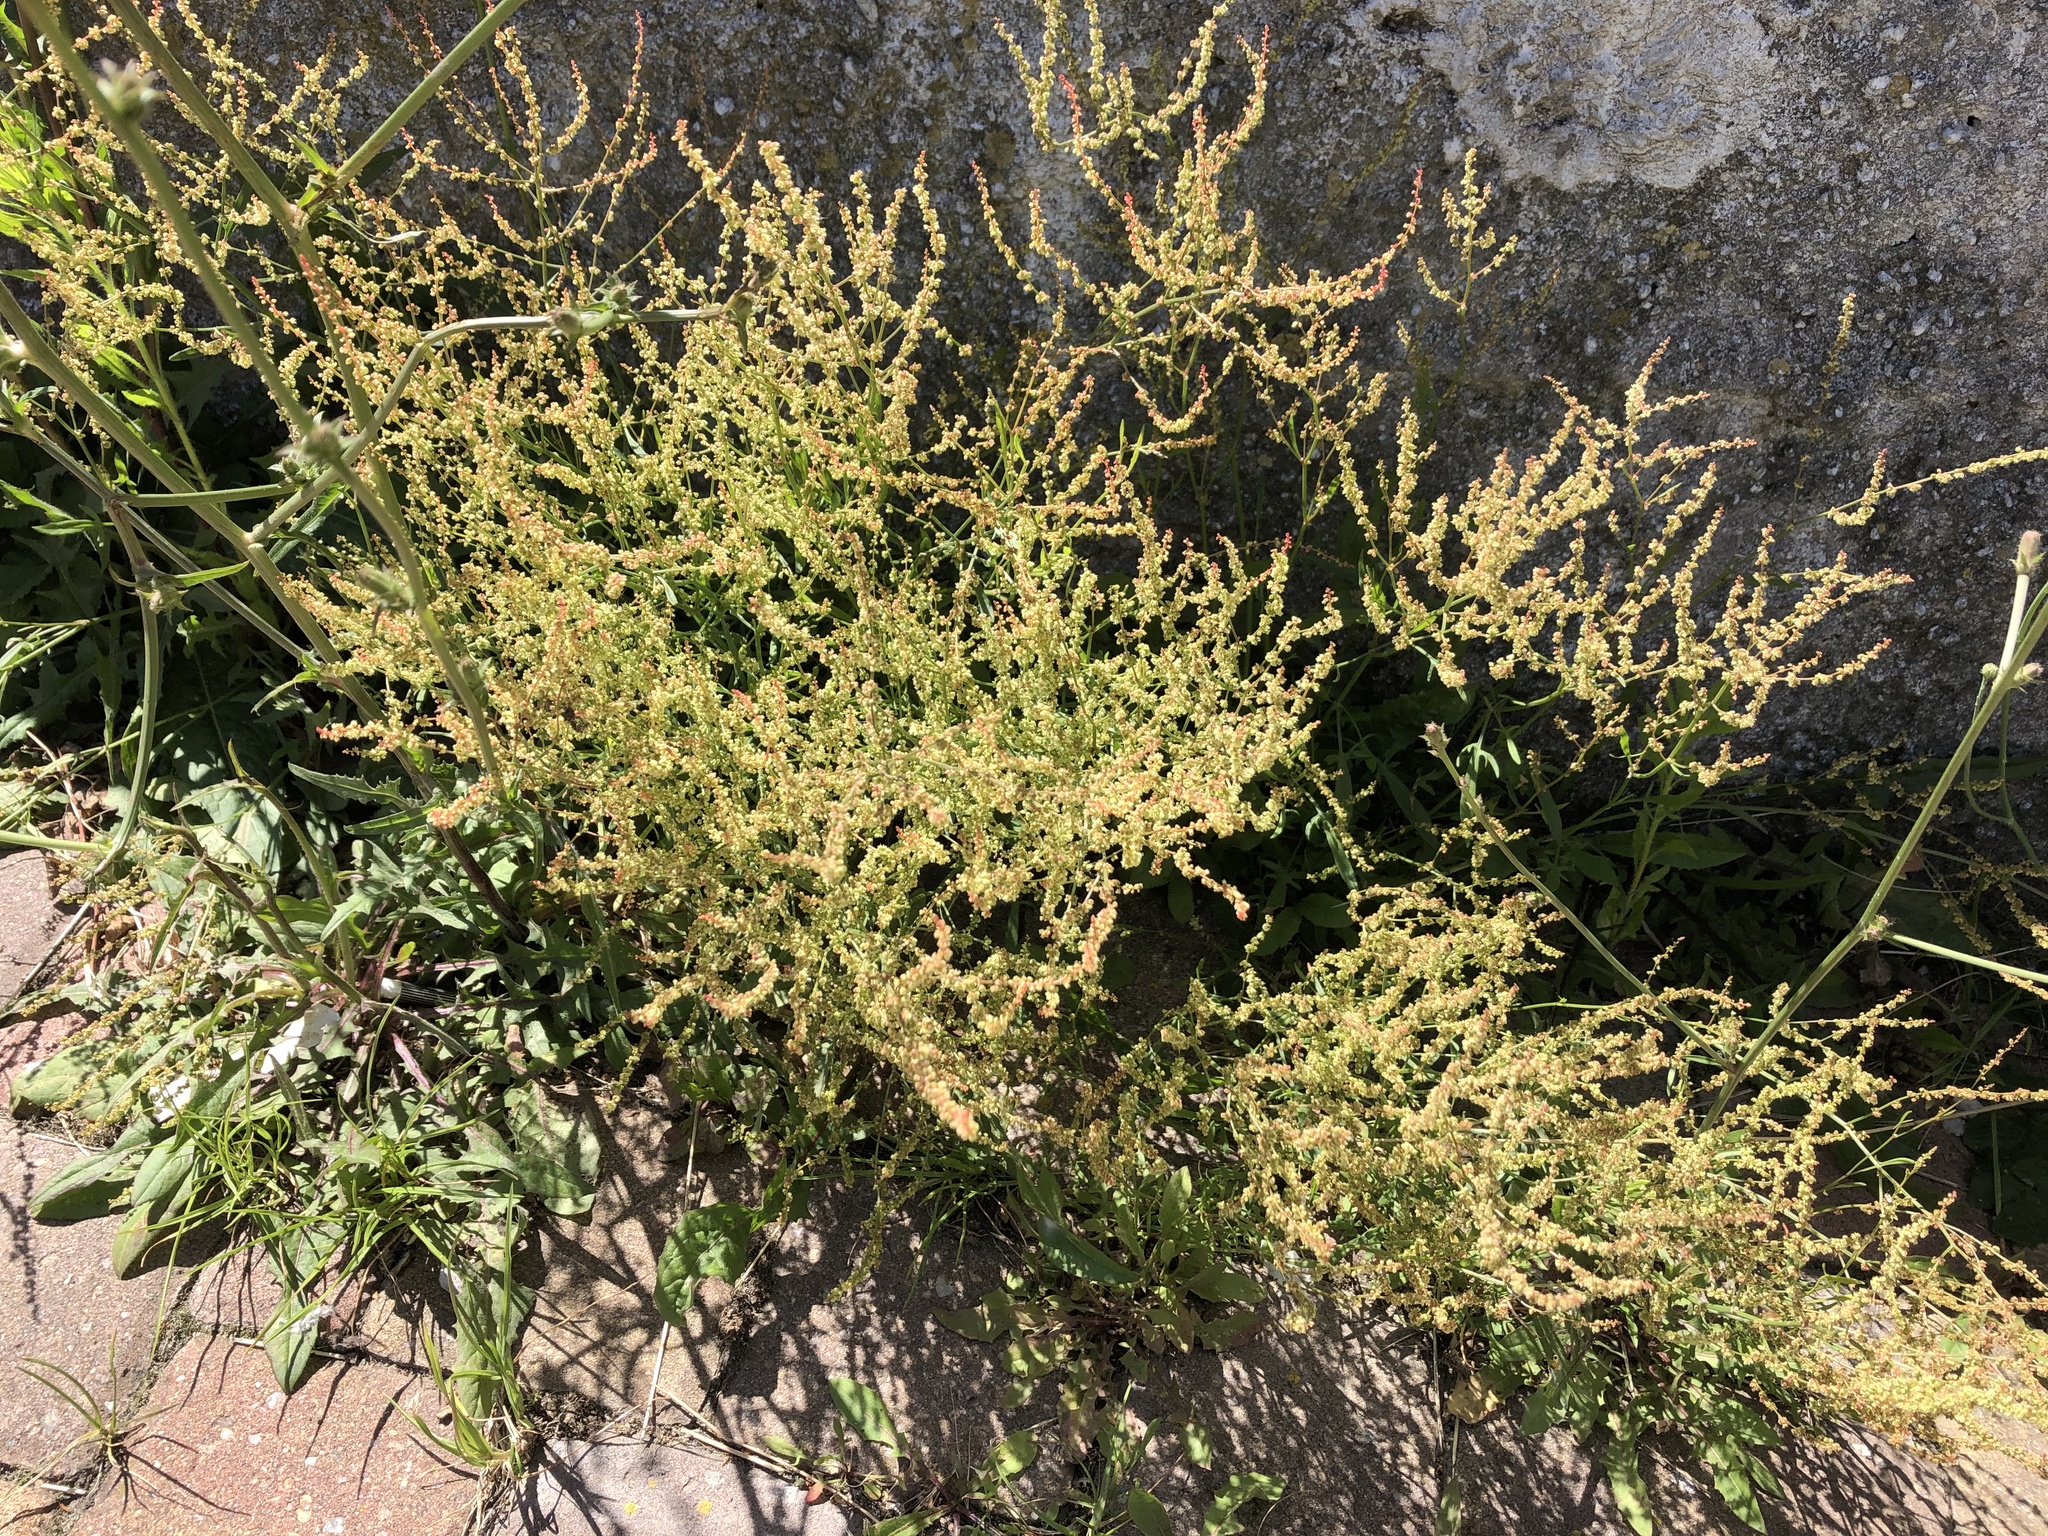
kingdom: Plantae
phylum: Tracheophyta
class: Magnoliopsida
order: Caryophyllales
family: Polygonaceae
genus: Rumex
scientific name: Rumex acetosella
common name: Common sheep sorrel
